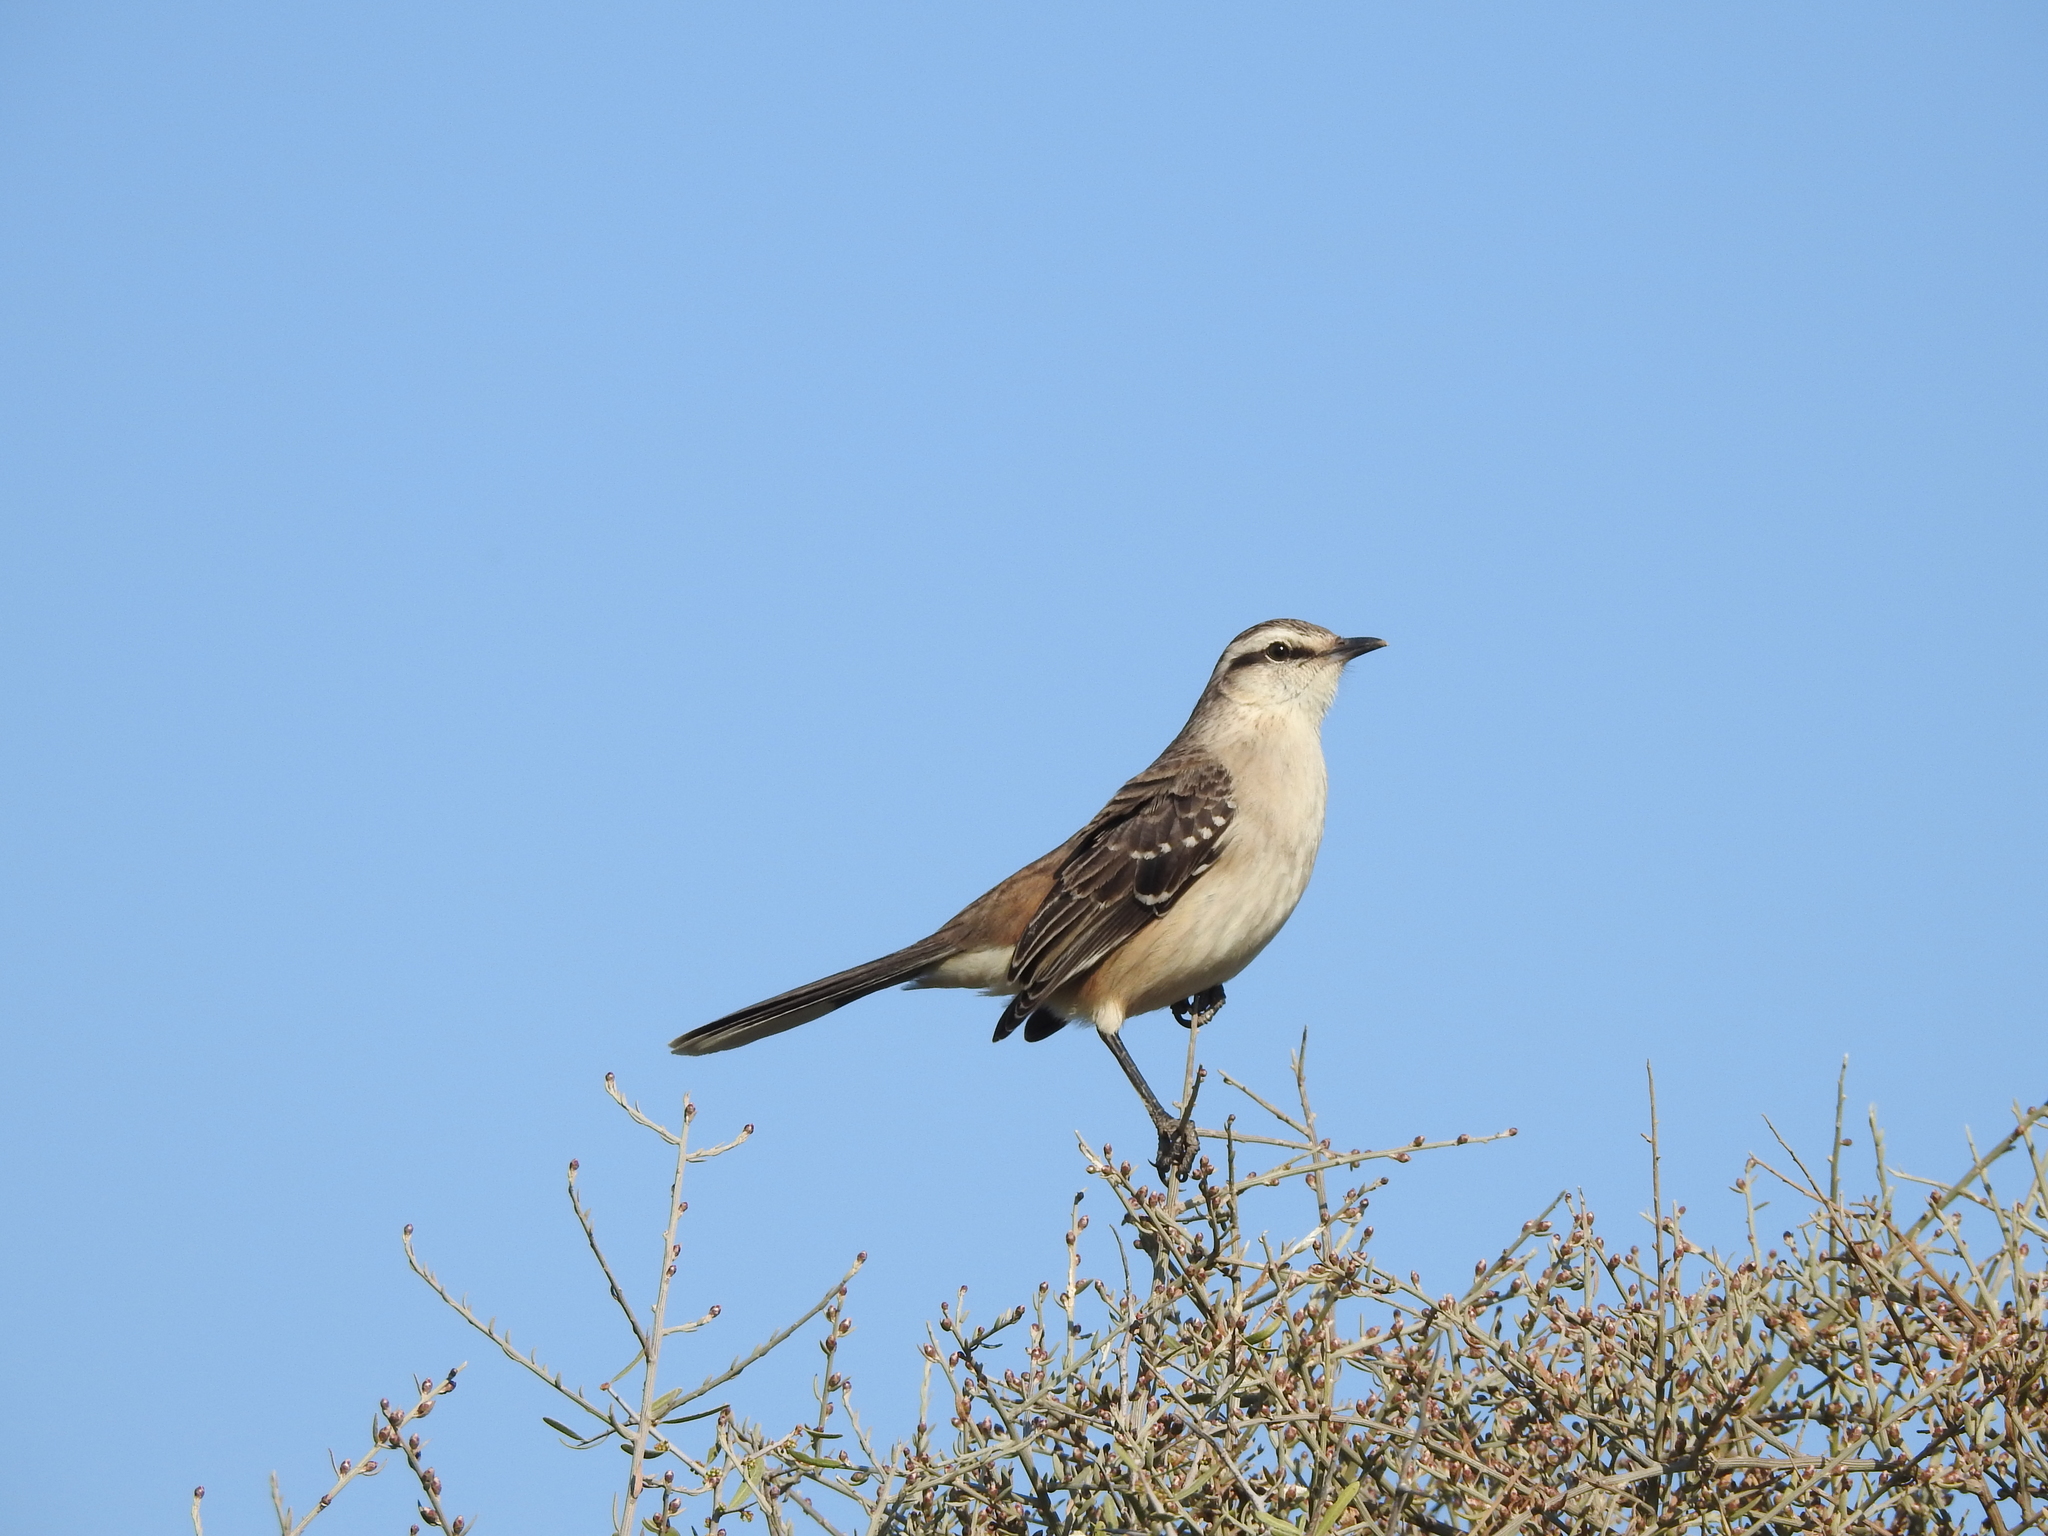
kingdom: Animalia
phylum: Chordata
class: Aves
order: Passeriformes
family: Mimidae
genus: Mimus
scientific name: Mimus saturninus
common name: Chalk-browed mockingbird
